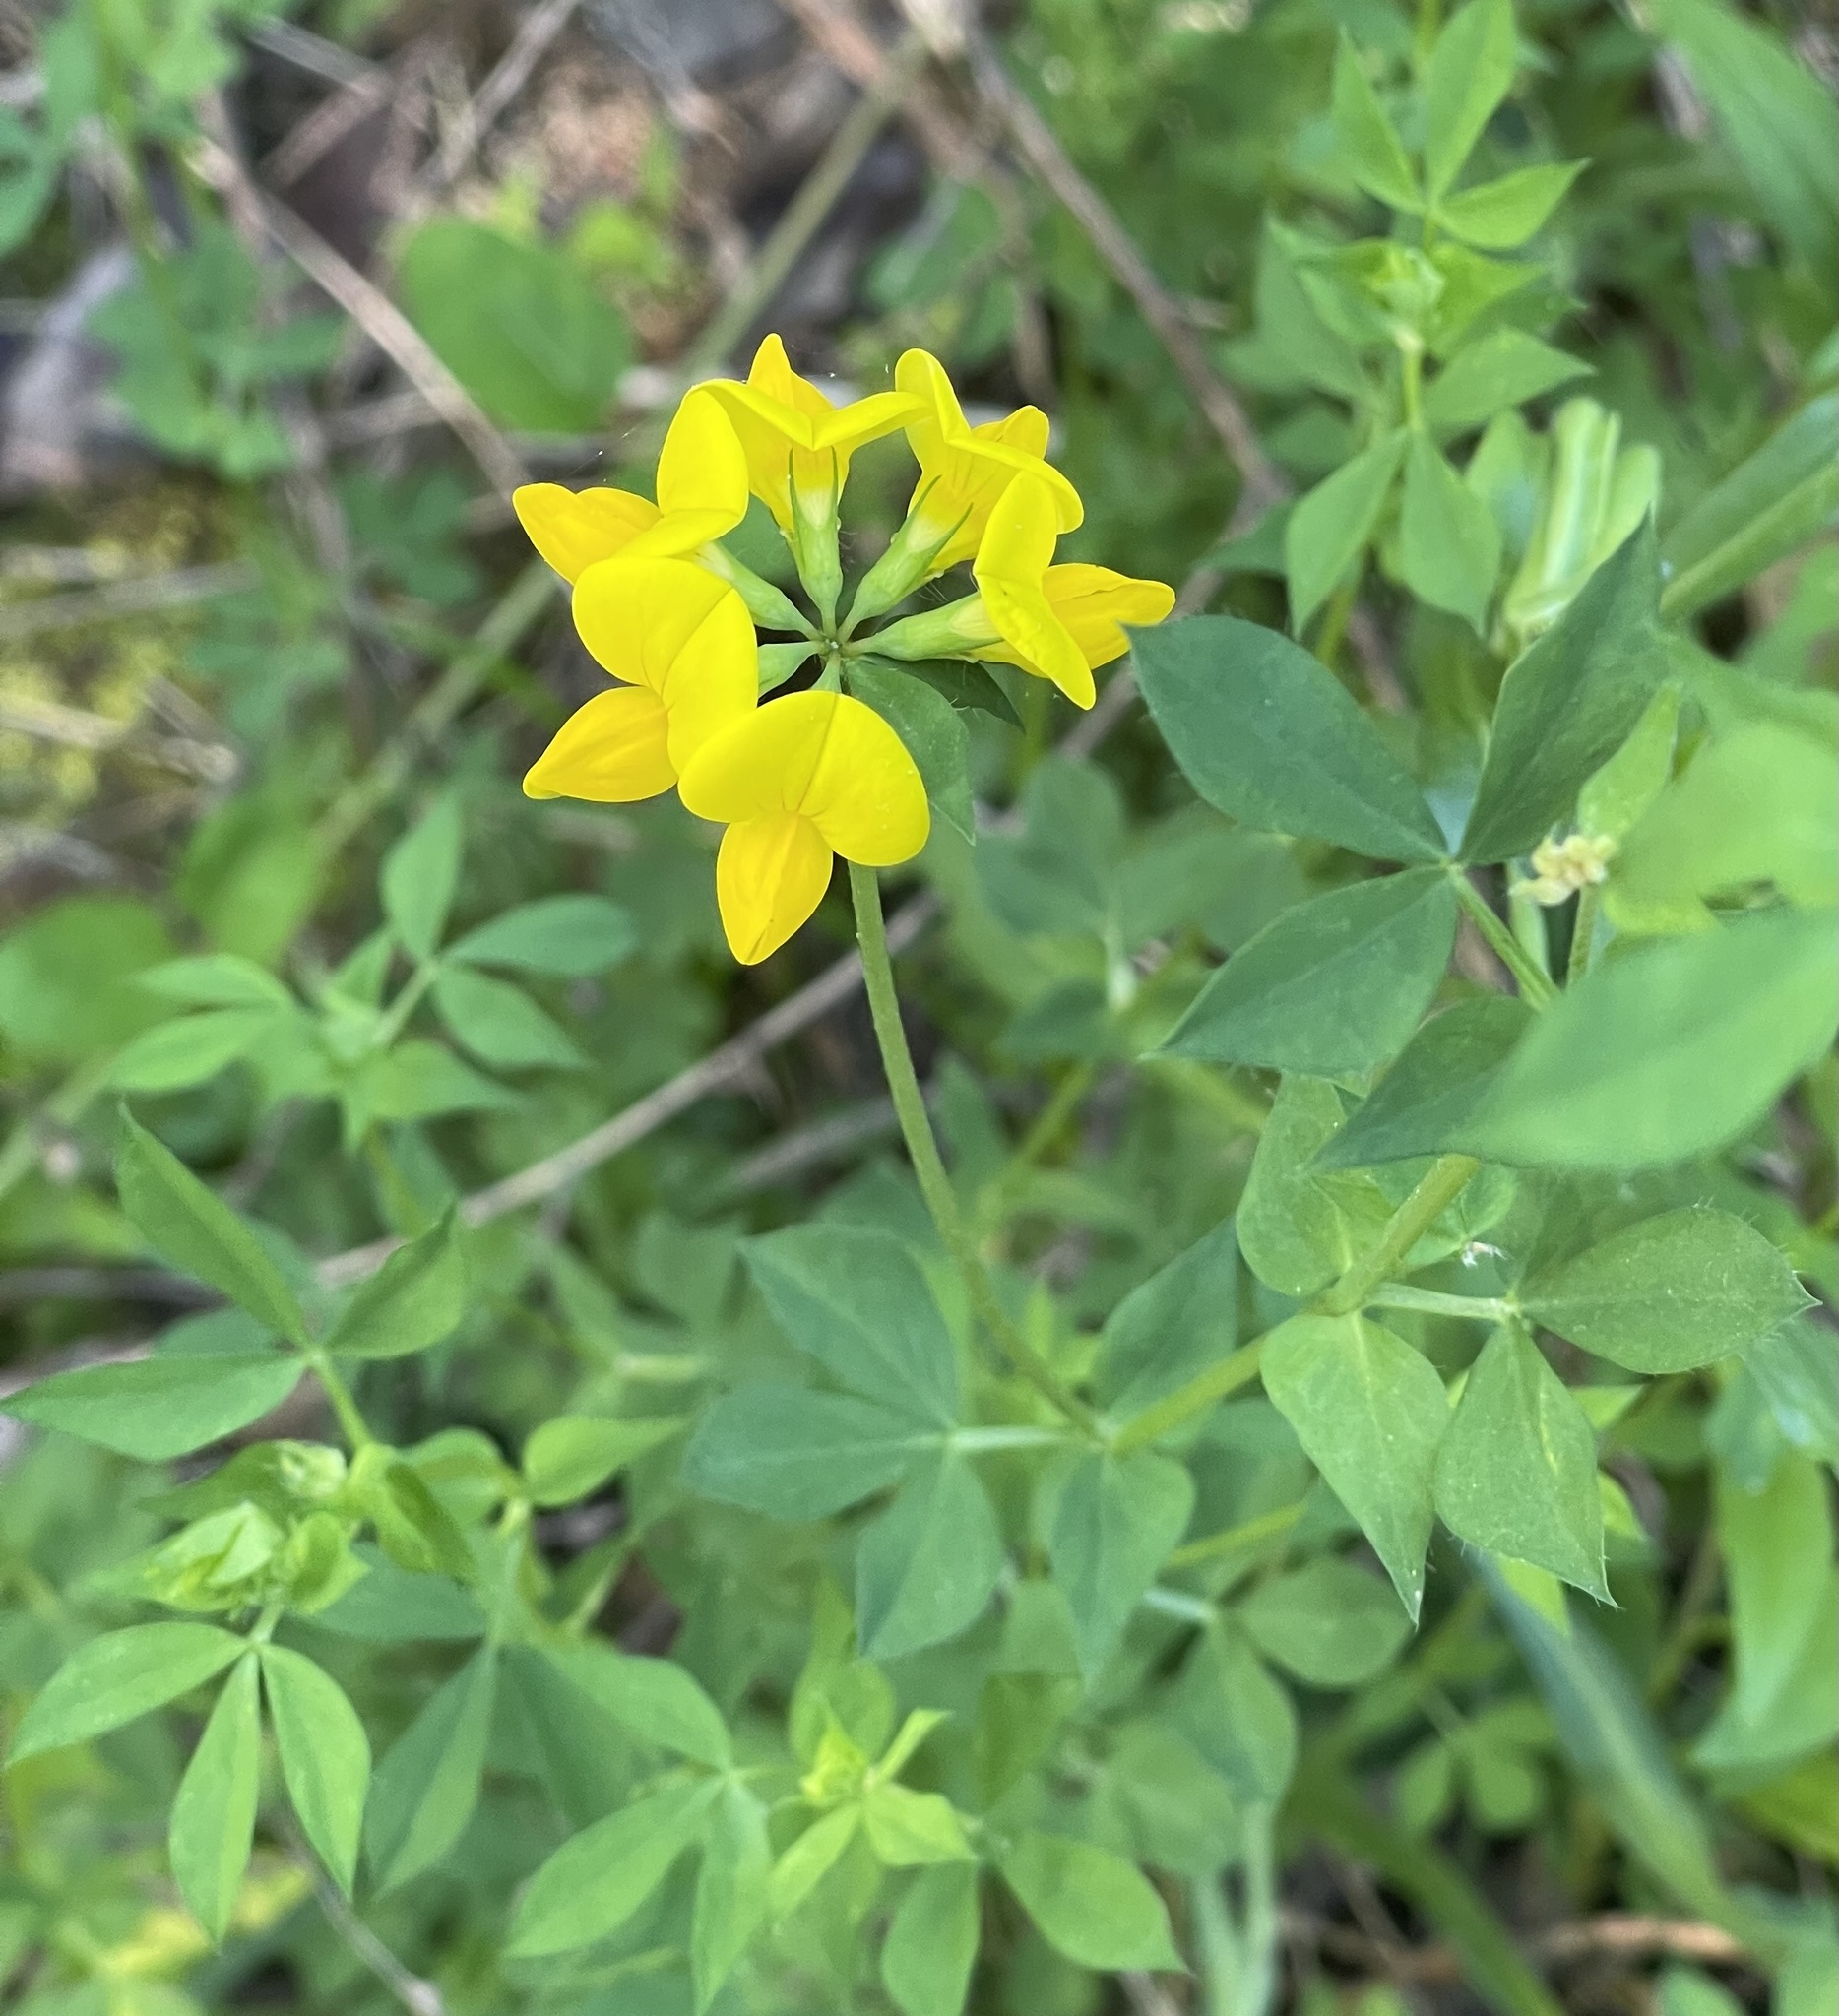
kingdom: Plantae
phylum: Tracheophyta
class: Magnoliopsida
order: Fabales
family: Fabaceae
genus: Lotus
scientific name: Lotus corniculatus
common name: Common bird's-foot-trefoil
